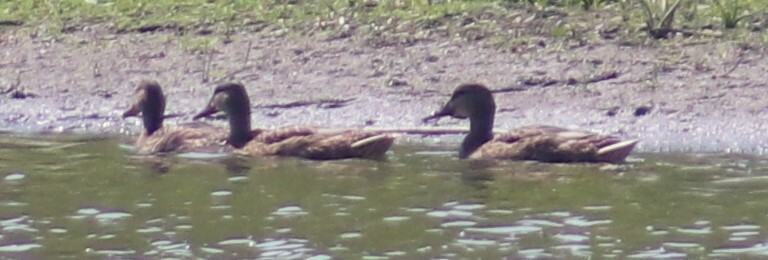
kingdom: Animalia
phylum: Chordata
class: Aves
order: Anseriformes
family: Anatidae
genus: Anas
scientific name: Anas platyrhynchos
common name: Mallard
